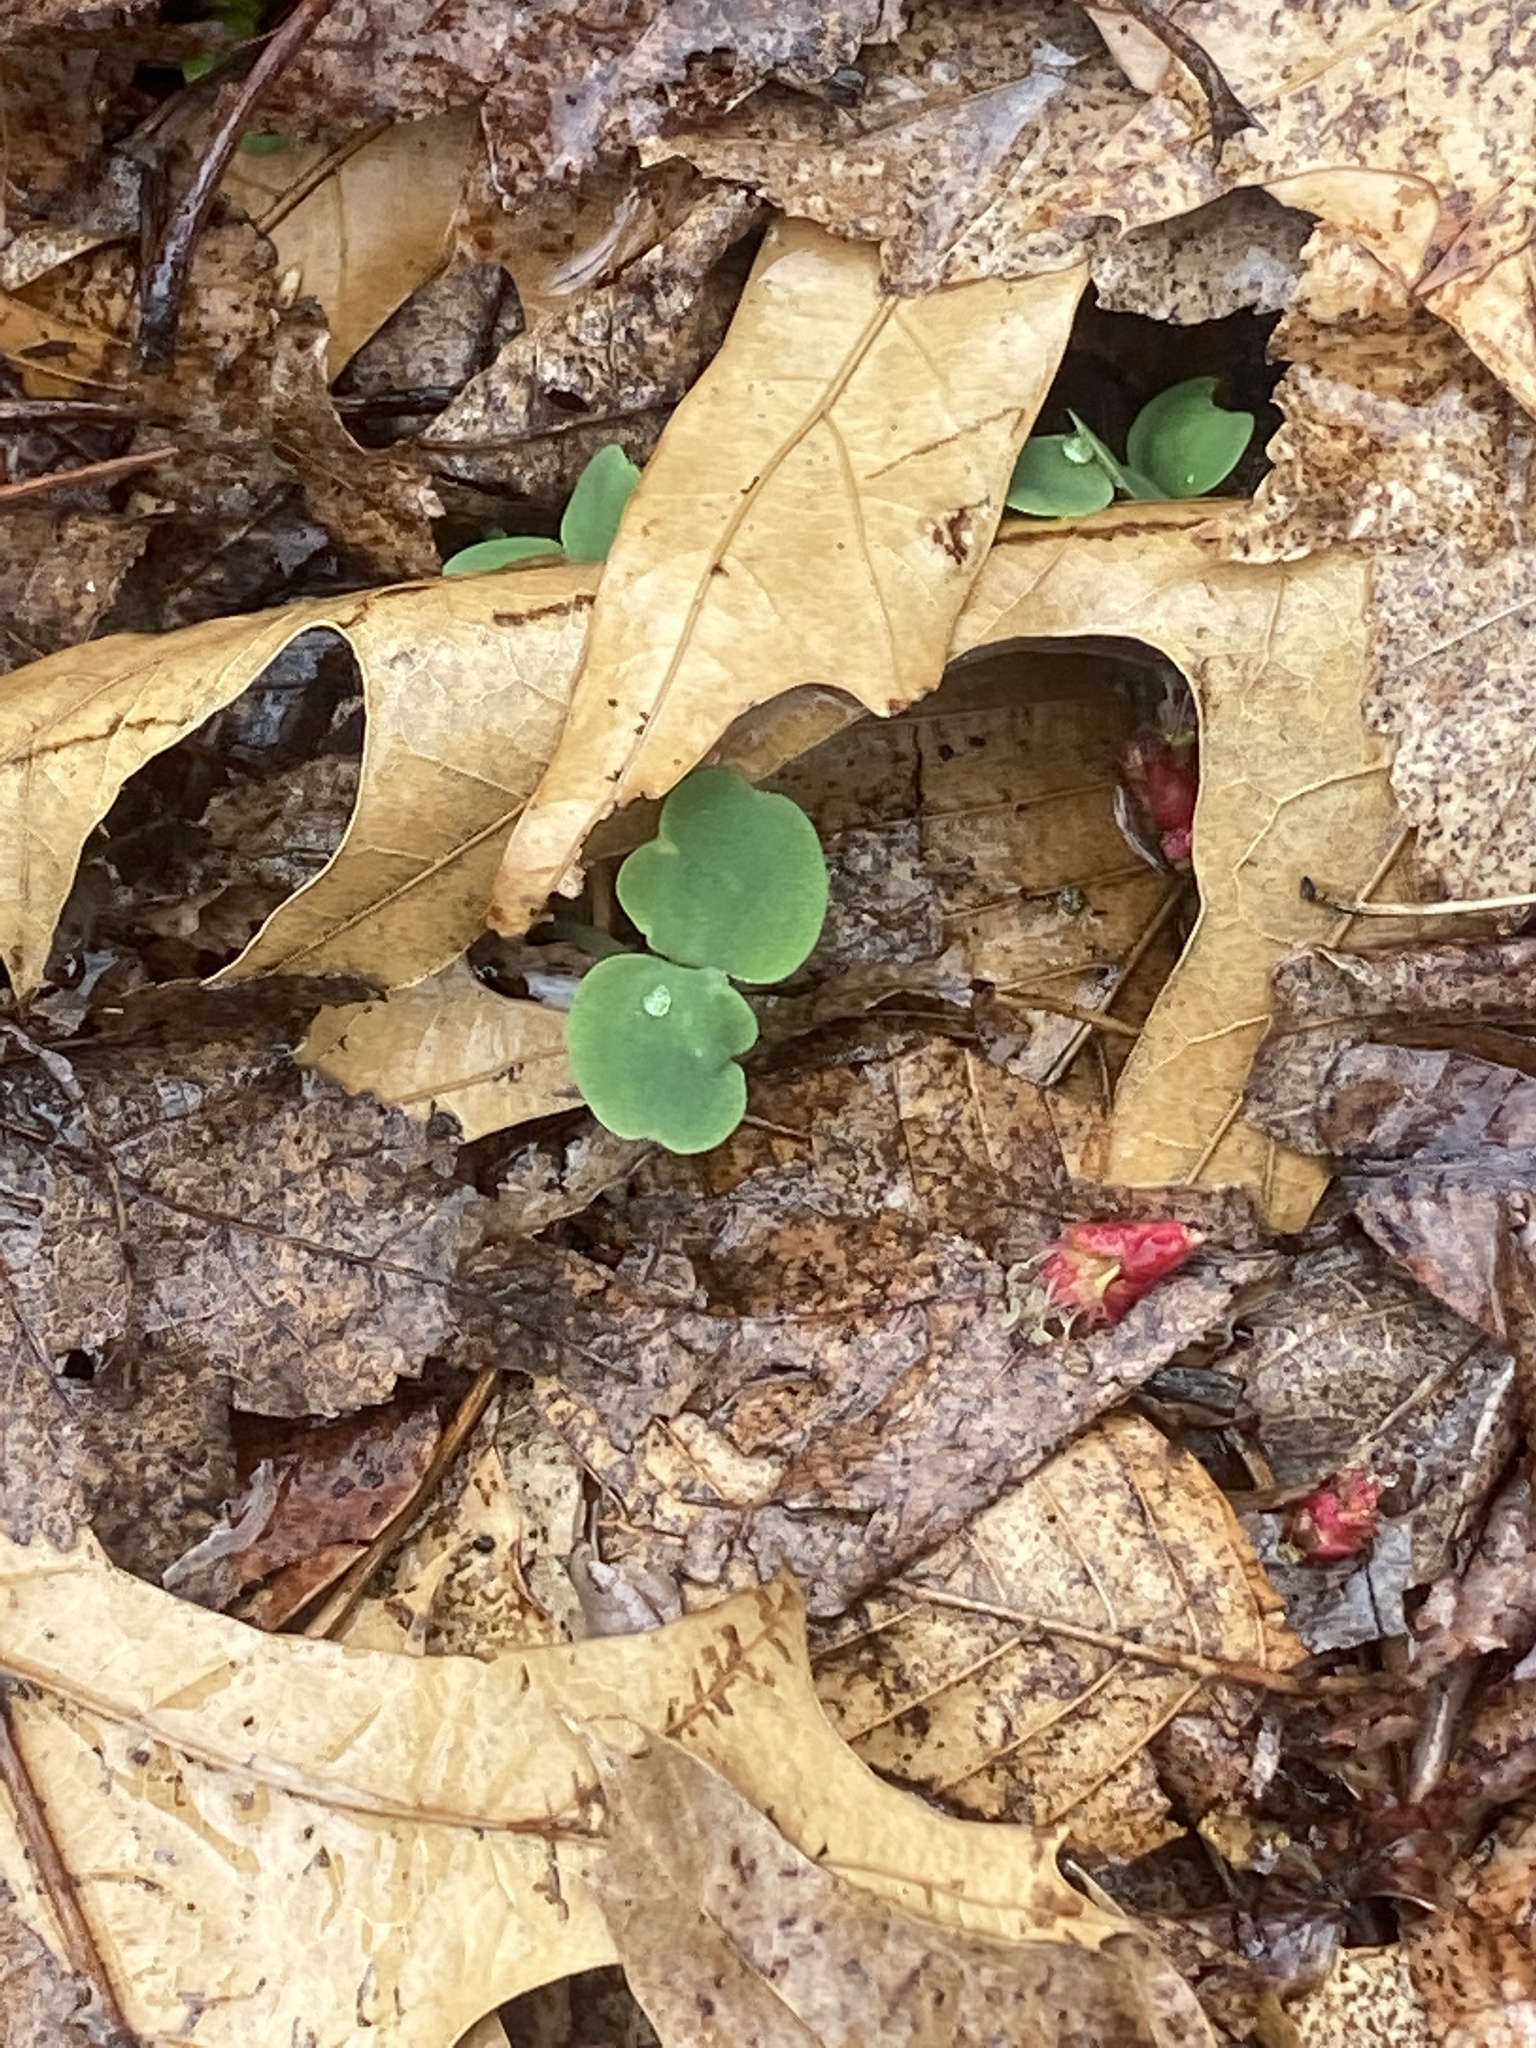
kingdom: Plantae
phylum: Tracheophyta
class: Magnoliopsida
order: Ericales
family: Balsaminaceae
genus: Impatiens
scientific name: Impatiens
